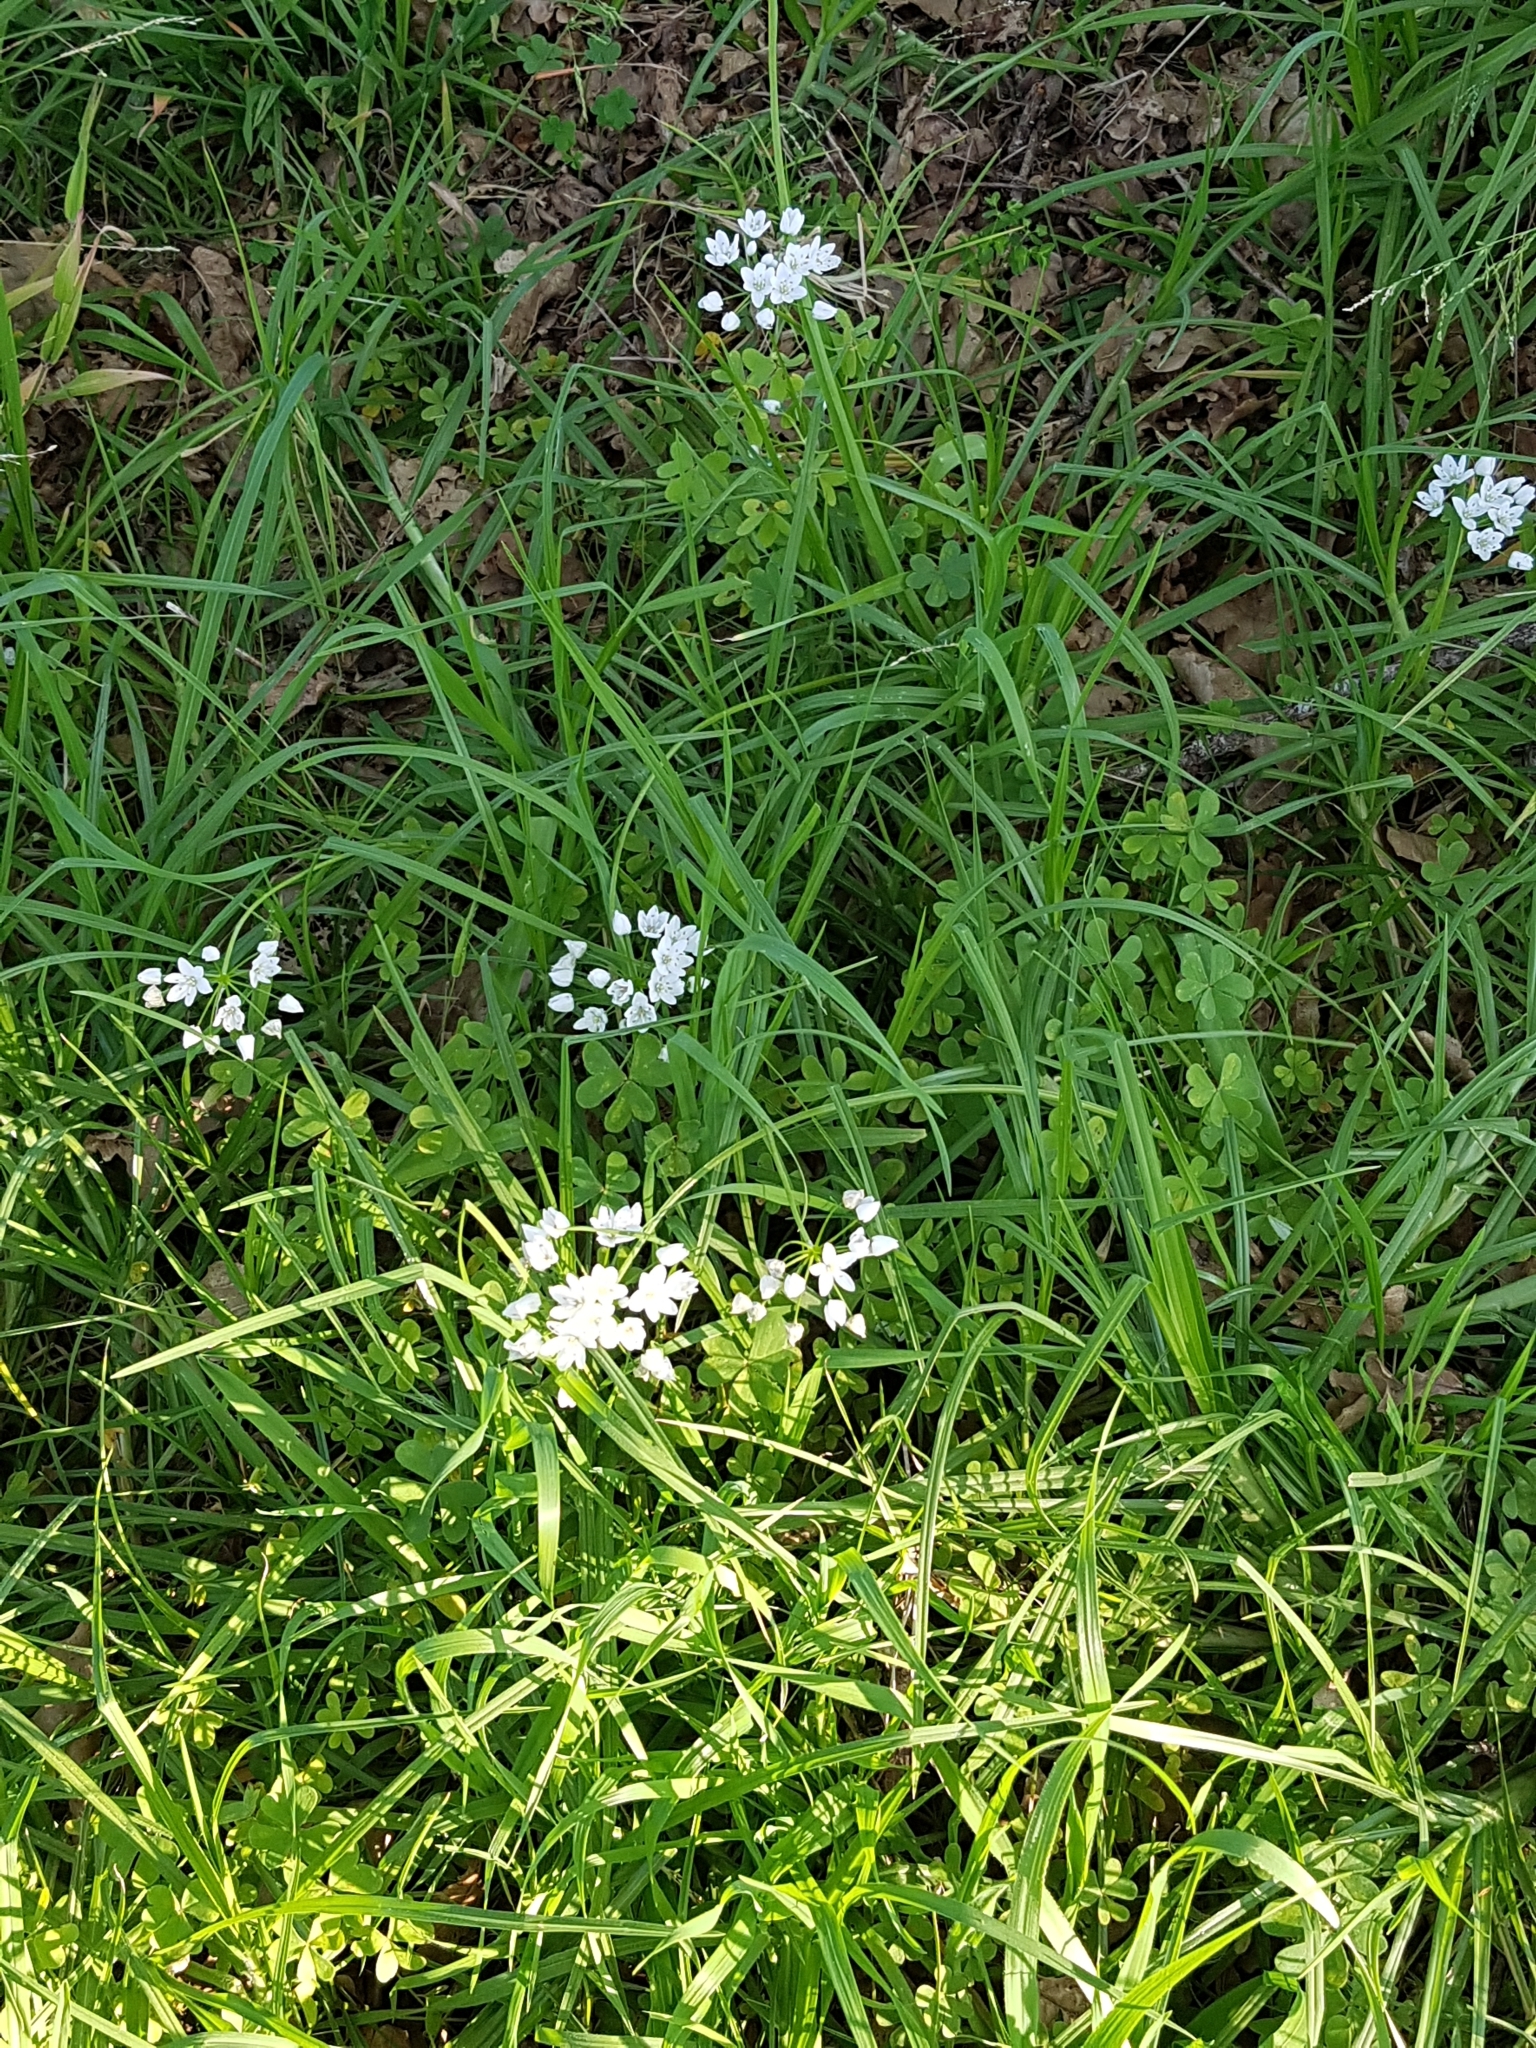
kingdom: Plantae
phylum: Tracheophyta
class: Liliopsida
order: Asparagales
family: Amaryllidaceae
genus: Allium
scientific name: Allium neapolitanum
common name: Neapolitan garlic
